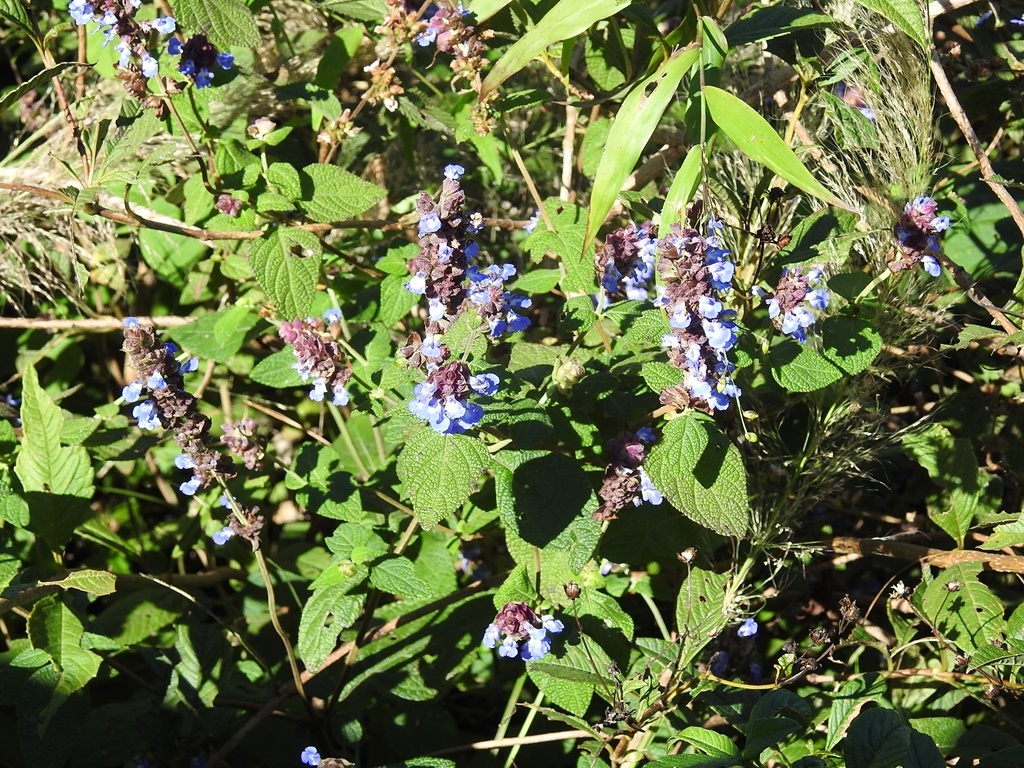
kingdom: Plantae
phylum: Tracheophyta
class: Magnoliopsida
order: Lamiales
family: Lamiaceae
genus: Salvia
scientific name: Salvia mocinoi
